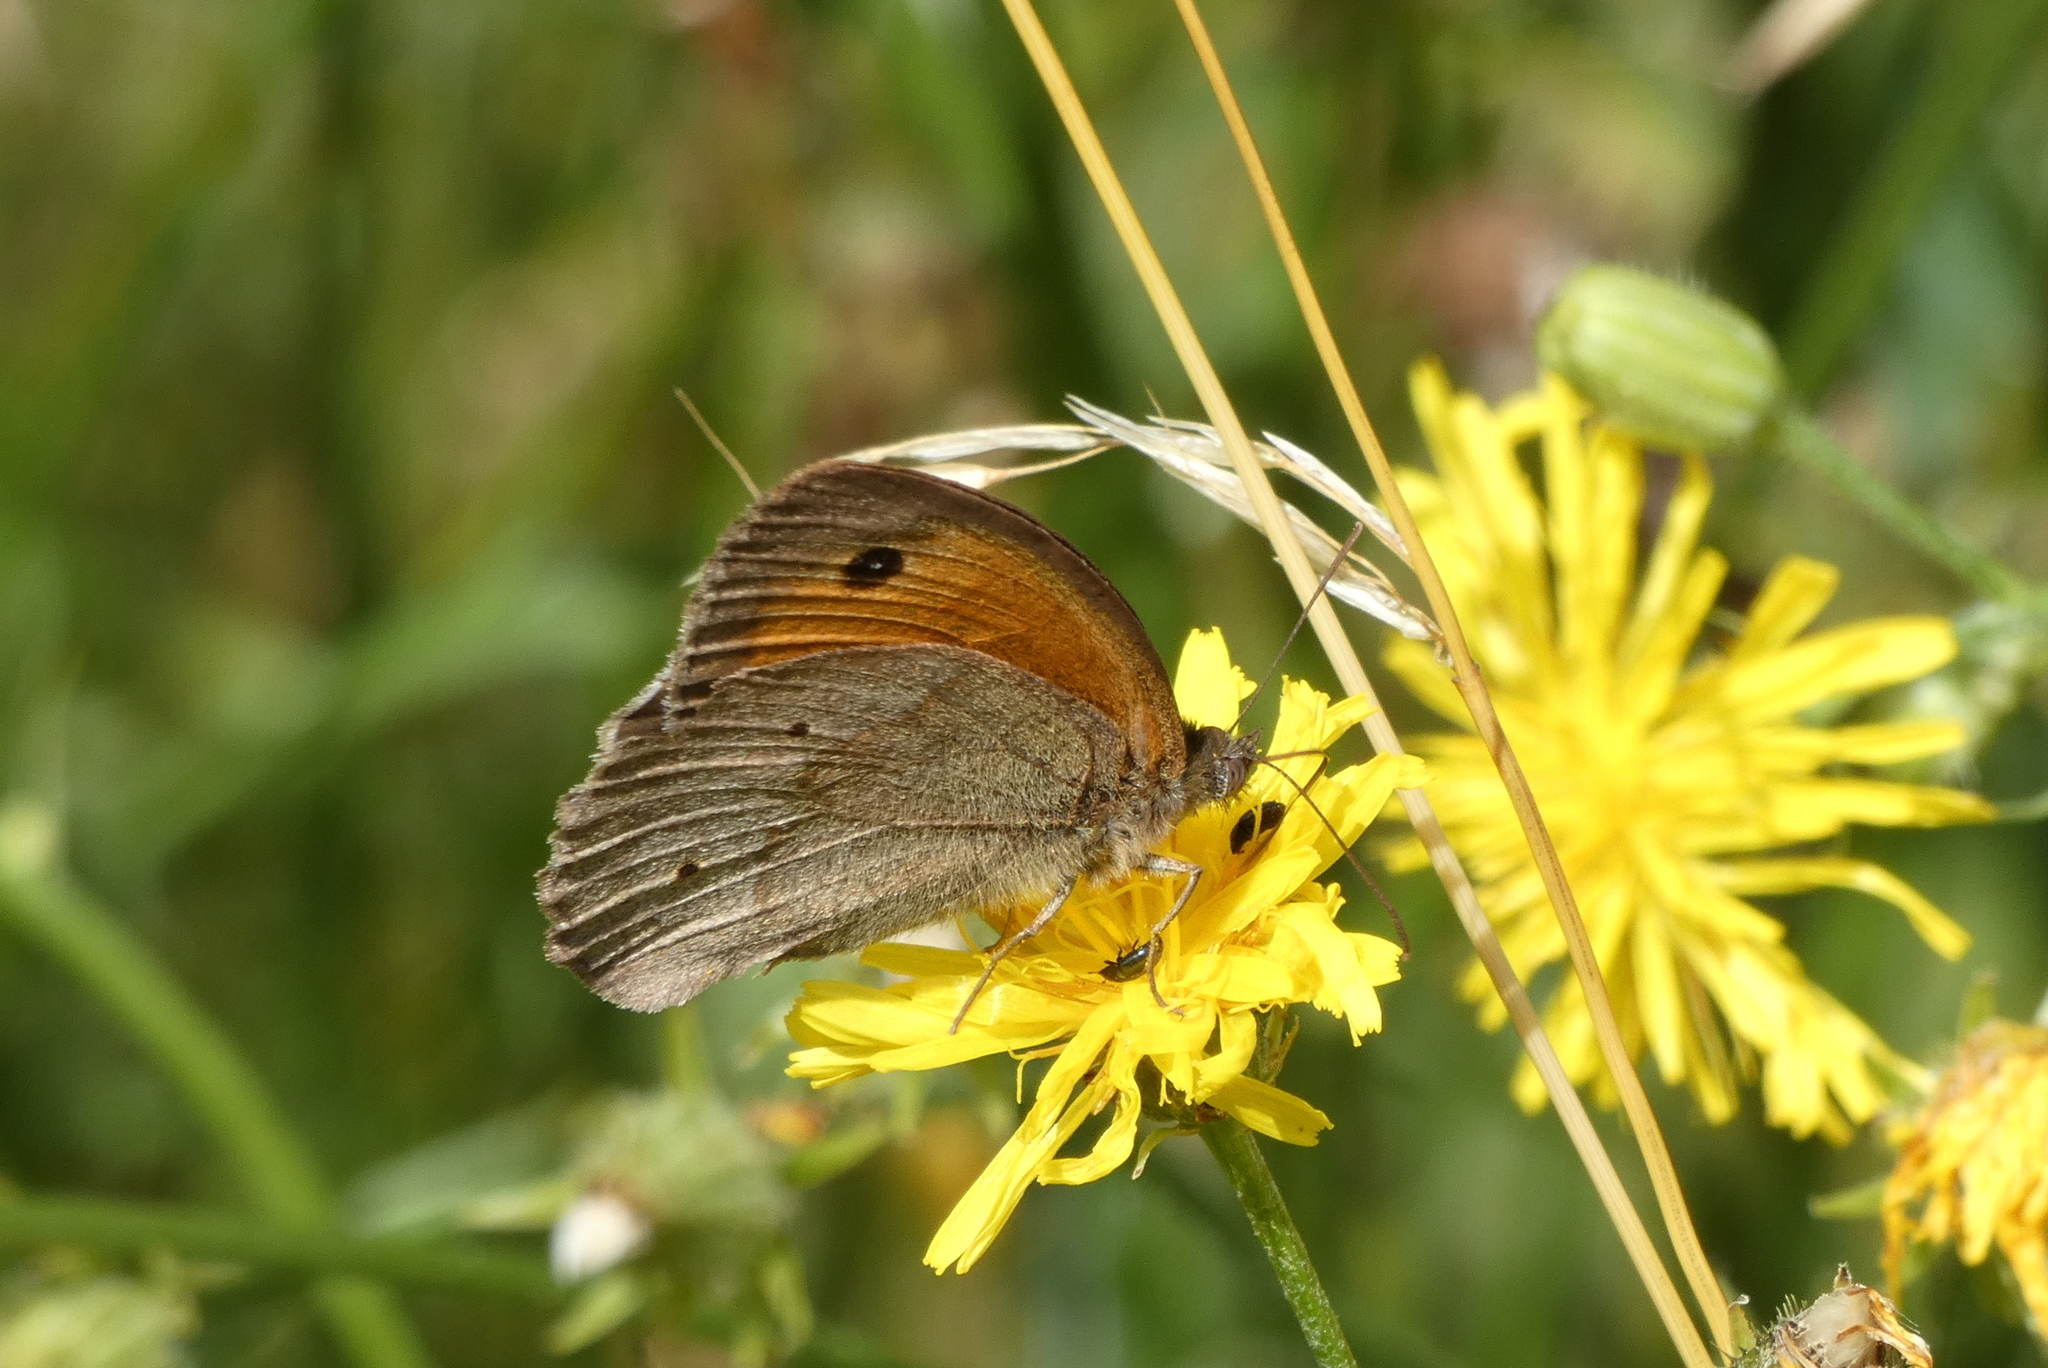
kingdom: Animalia
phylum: Arthropoda
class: Insecta
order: Lepidoptera
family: Nymphalidae
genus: Maniola
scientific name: Maniola jurtina
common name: Meadow brown
